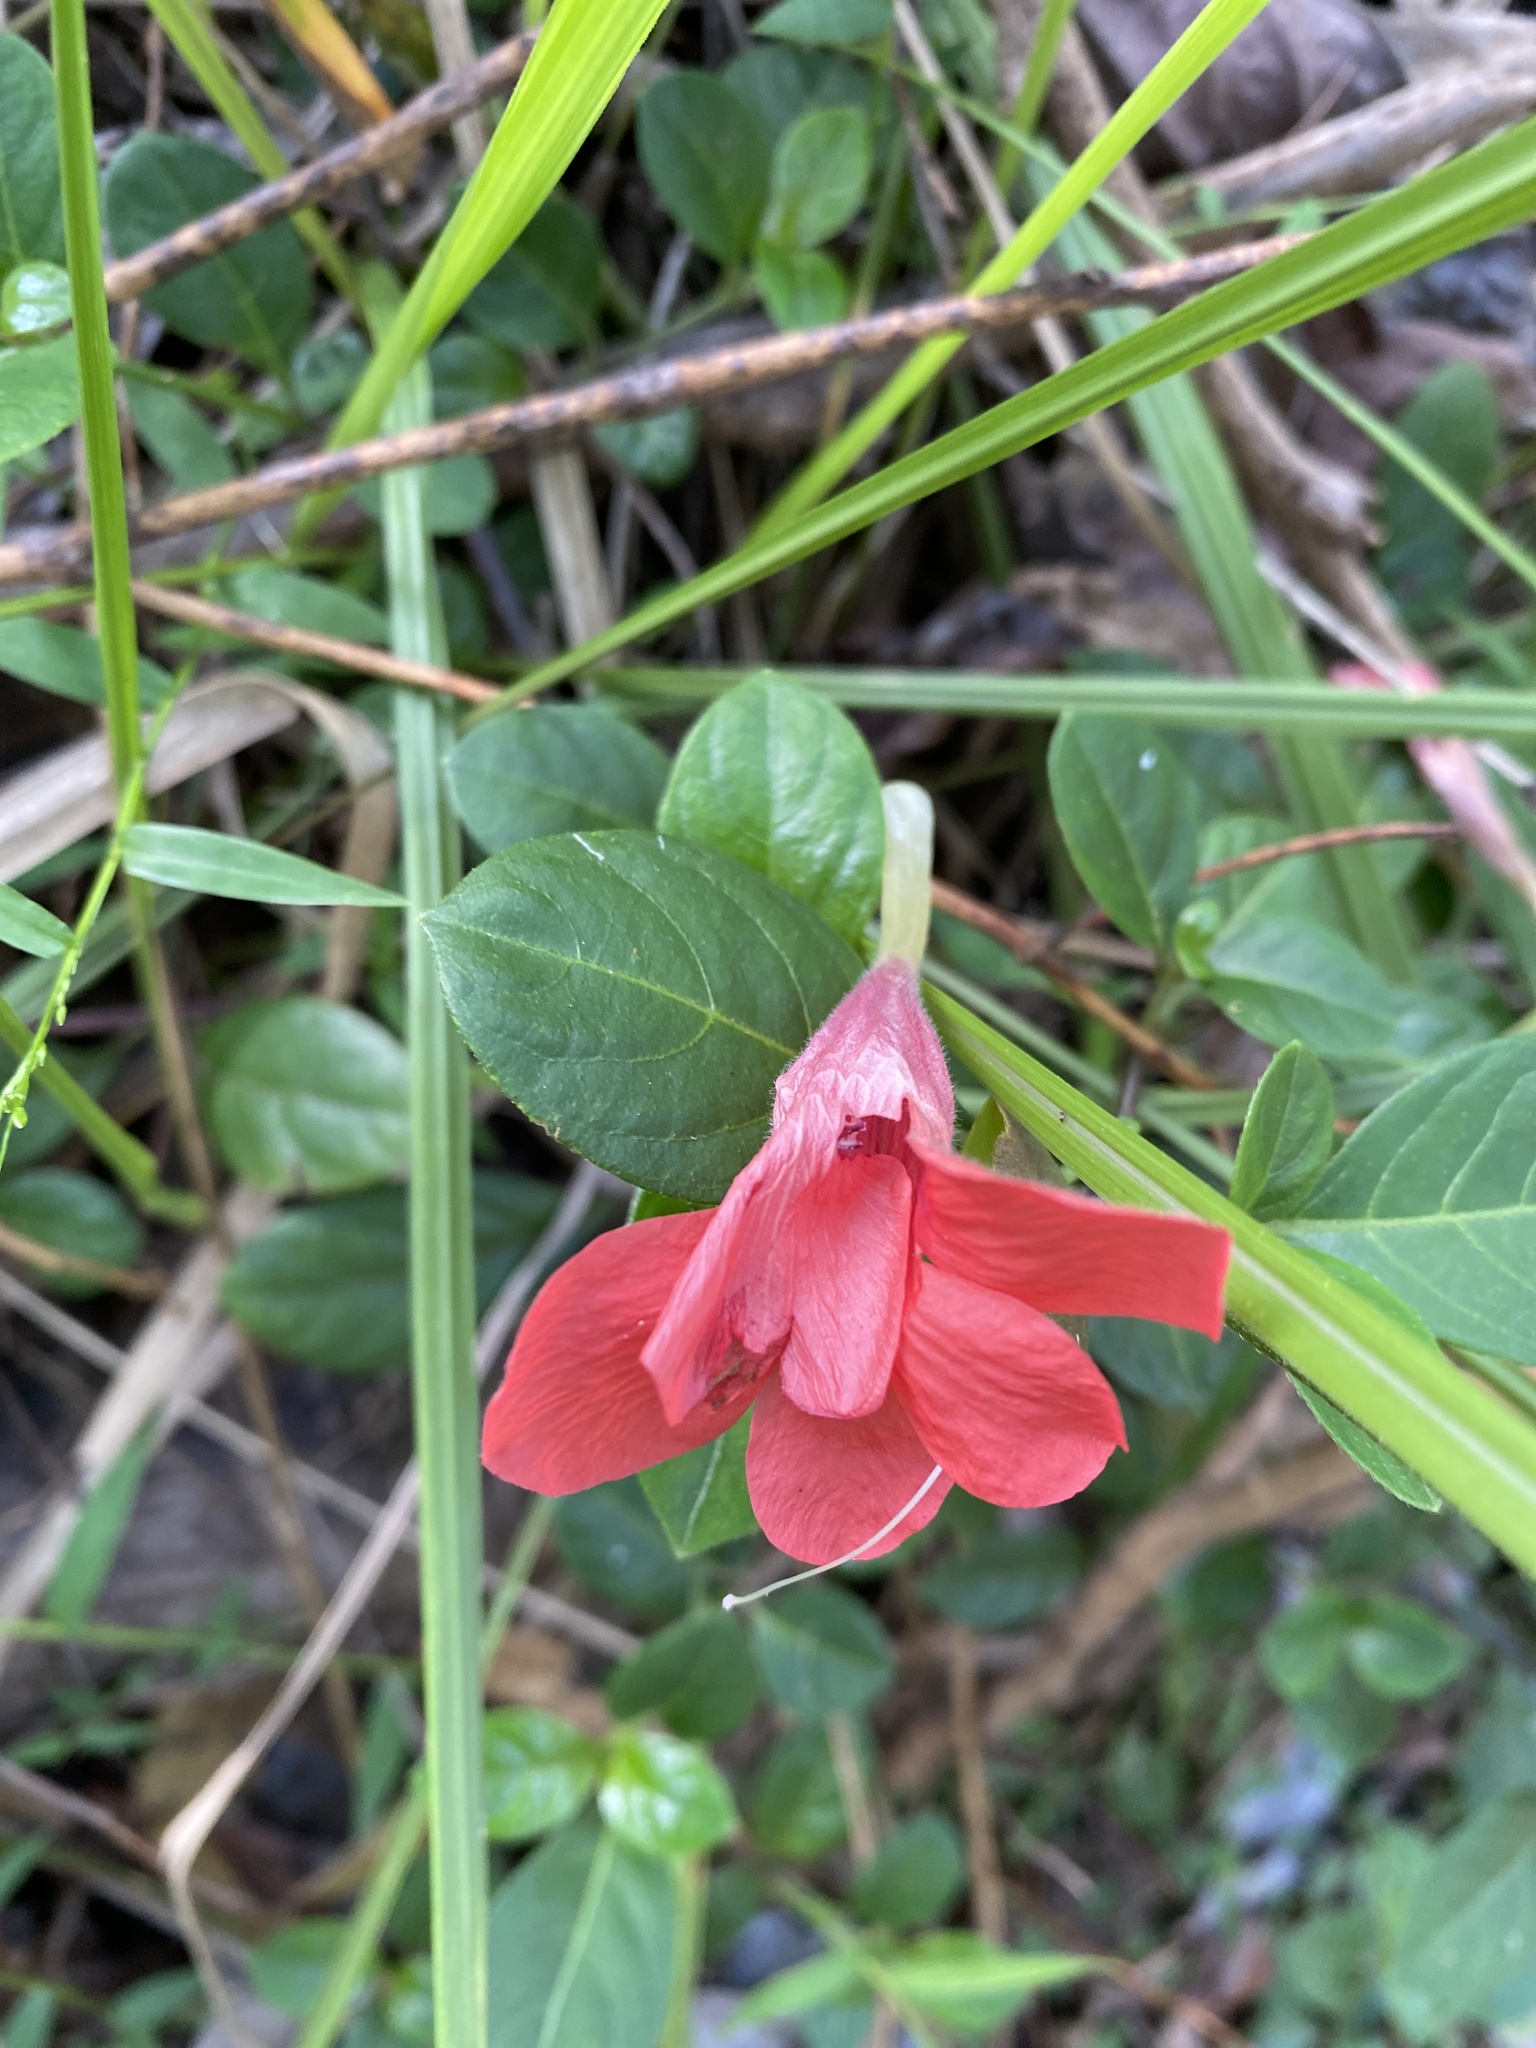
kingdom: Plantae
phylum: Tracheophyta
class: Magnoliopsida
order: Lamiales
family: Acanthaceae
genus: Barleria
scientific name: Barleria repens
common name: Pink-ruellia
